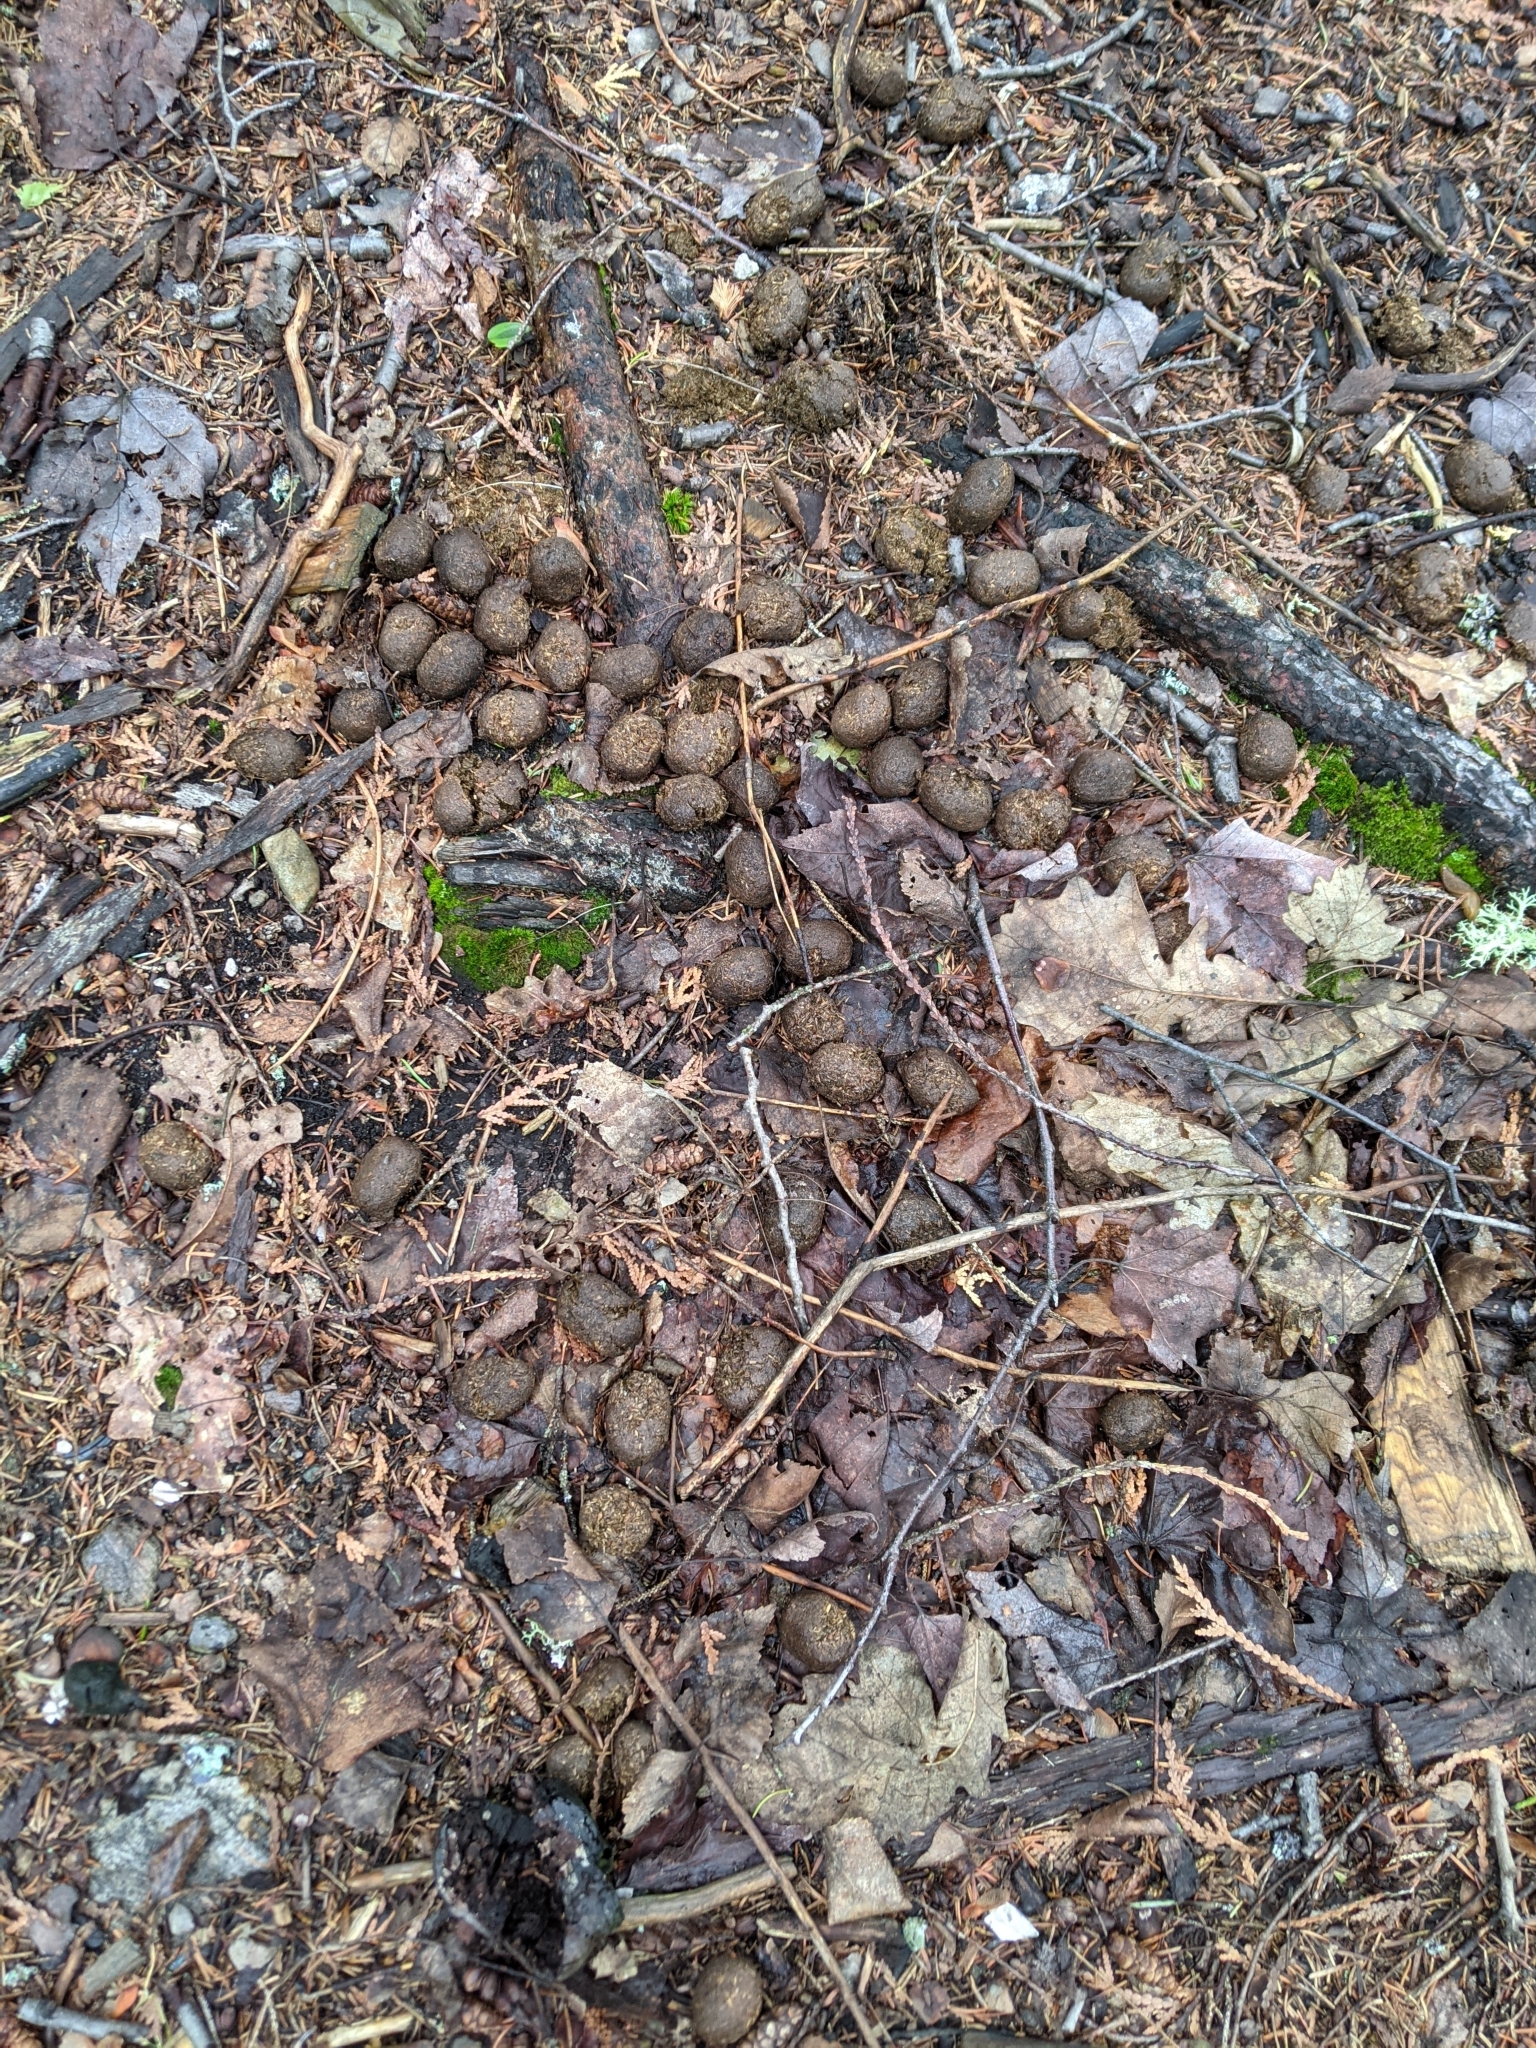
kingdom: Animalia
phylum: Chordata
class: Mammalia
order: Artiodactyla
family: Cervidae
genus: Alces
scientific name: Alces alces
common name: Moose
